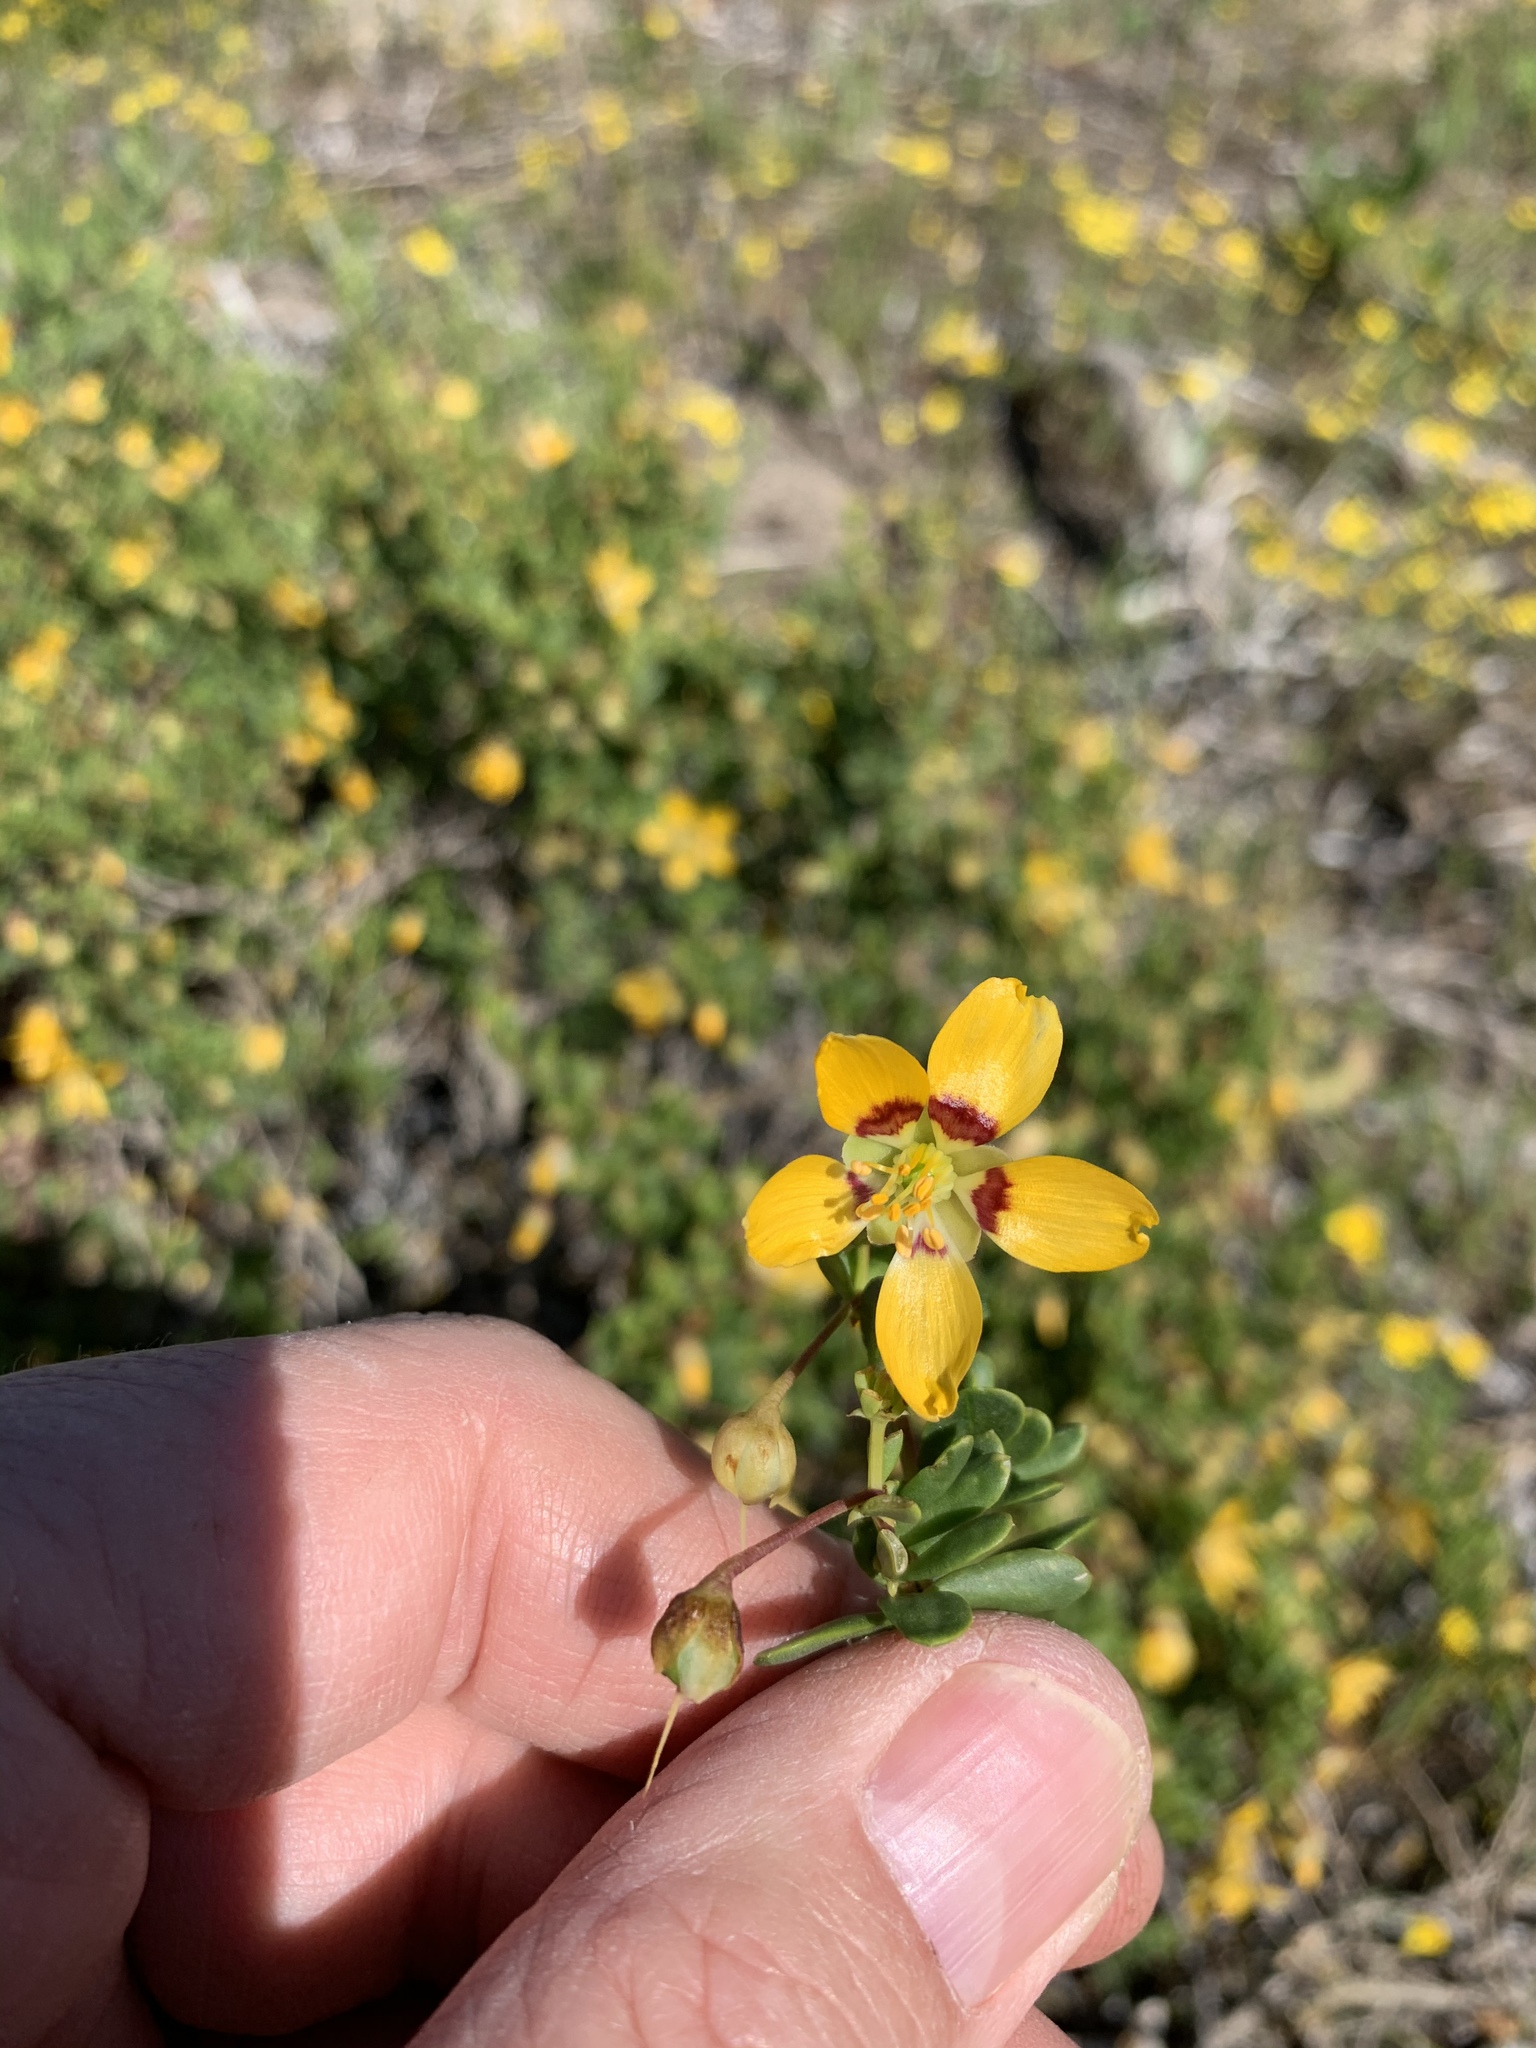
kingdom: Plantae
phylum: Tracheophyta
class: Magnoliopsida
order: Zygophyllales
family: Zygophyllaceae
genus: Roepera
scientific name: Roepera flexuosa
